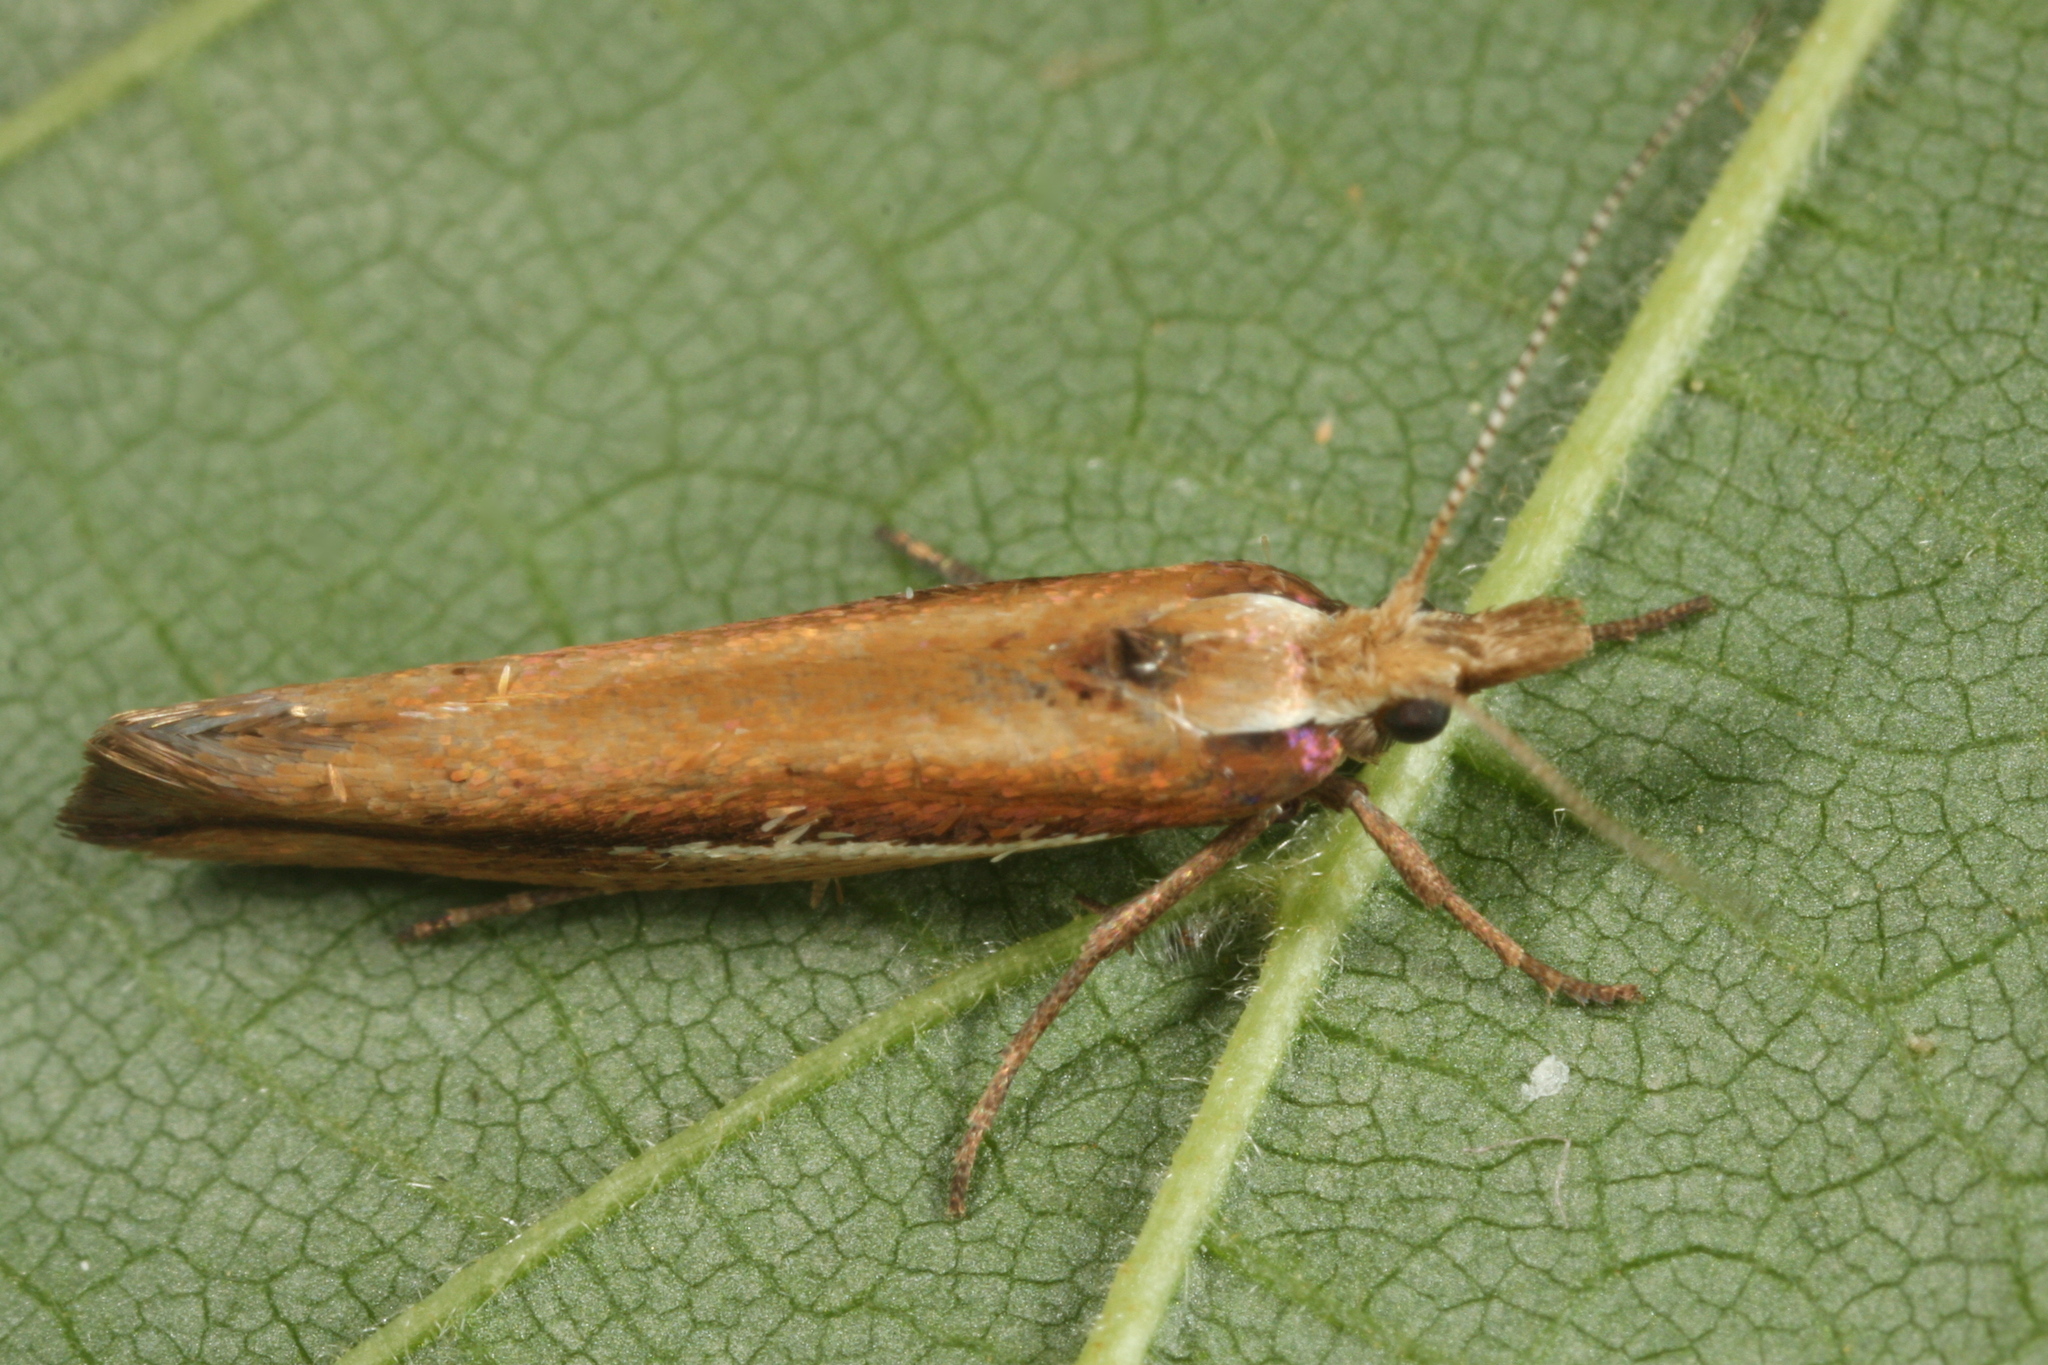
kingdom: Animalia
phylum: Arthropoda
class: Insecta
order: Lepidoptera
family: Ypsolophidae
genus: Ypsolopha
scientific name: Ypsolopha parenthesella
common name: White-shouldered smudge
